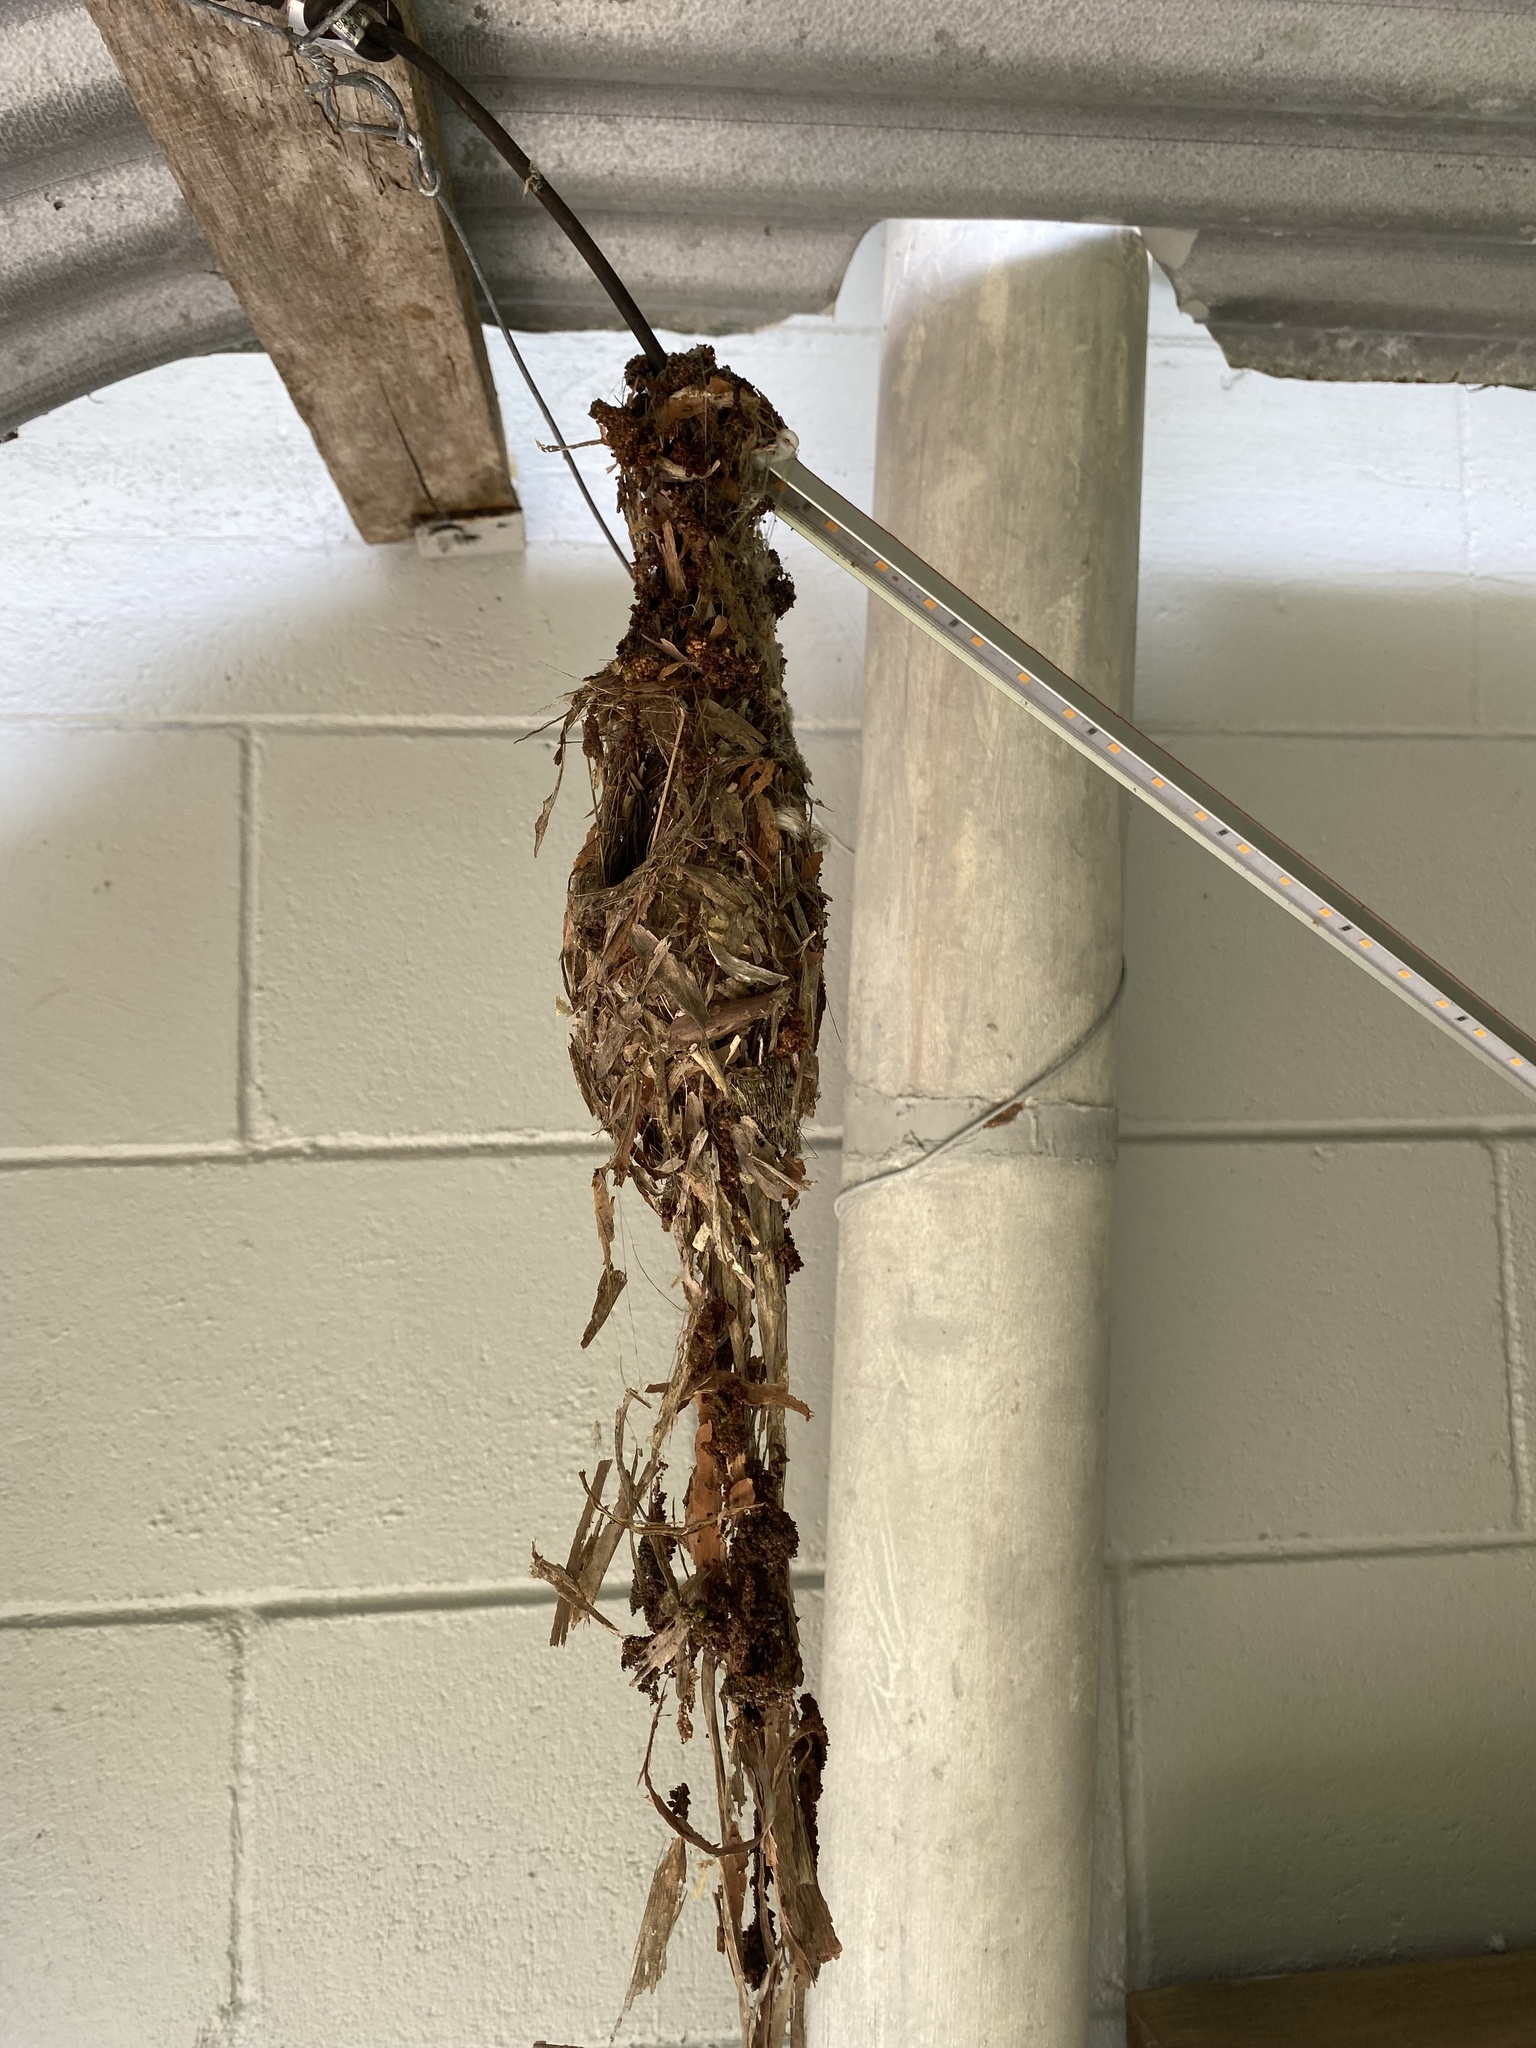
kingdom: Animalia
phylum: Chordata
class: Aves
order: Passeriformes
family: Nectariniidae
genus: Cinnyris
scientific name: Cinnyris
